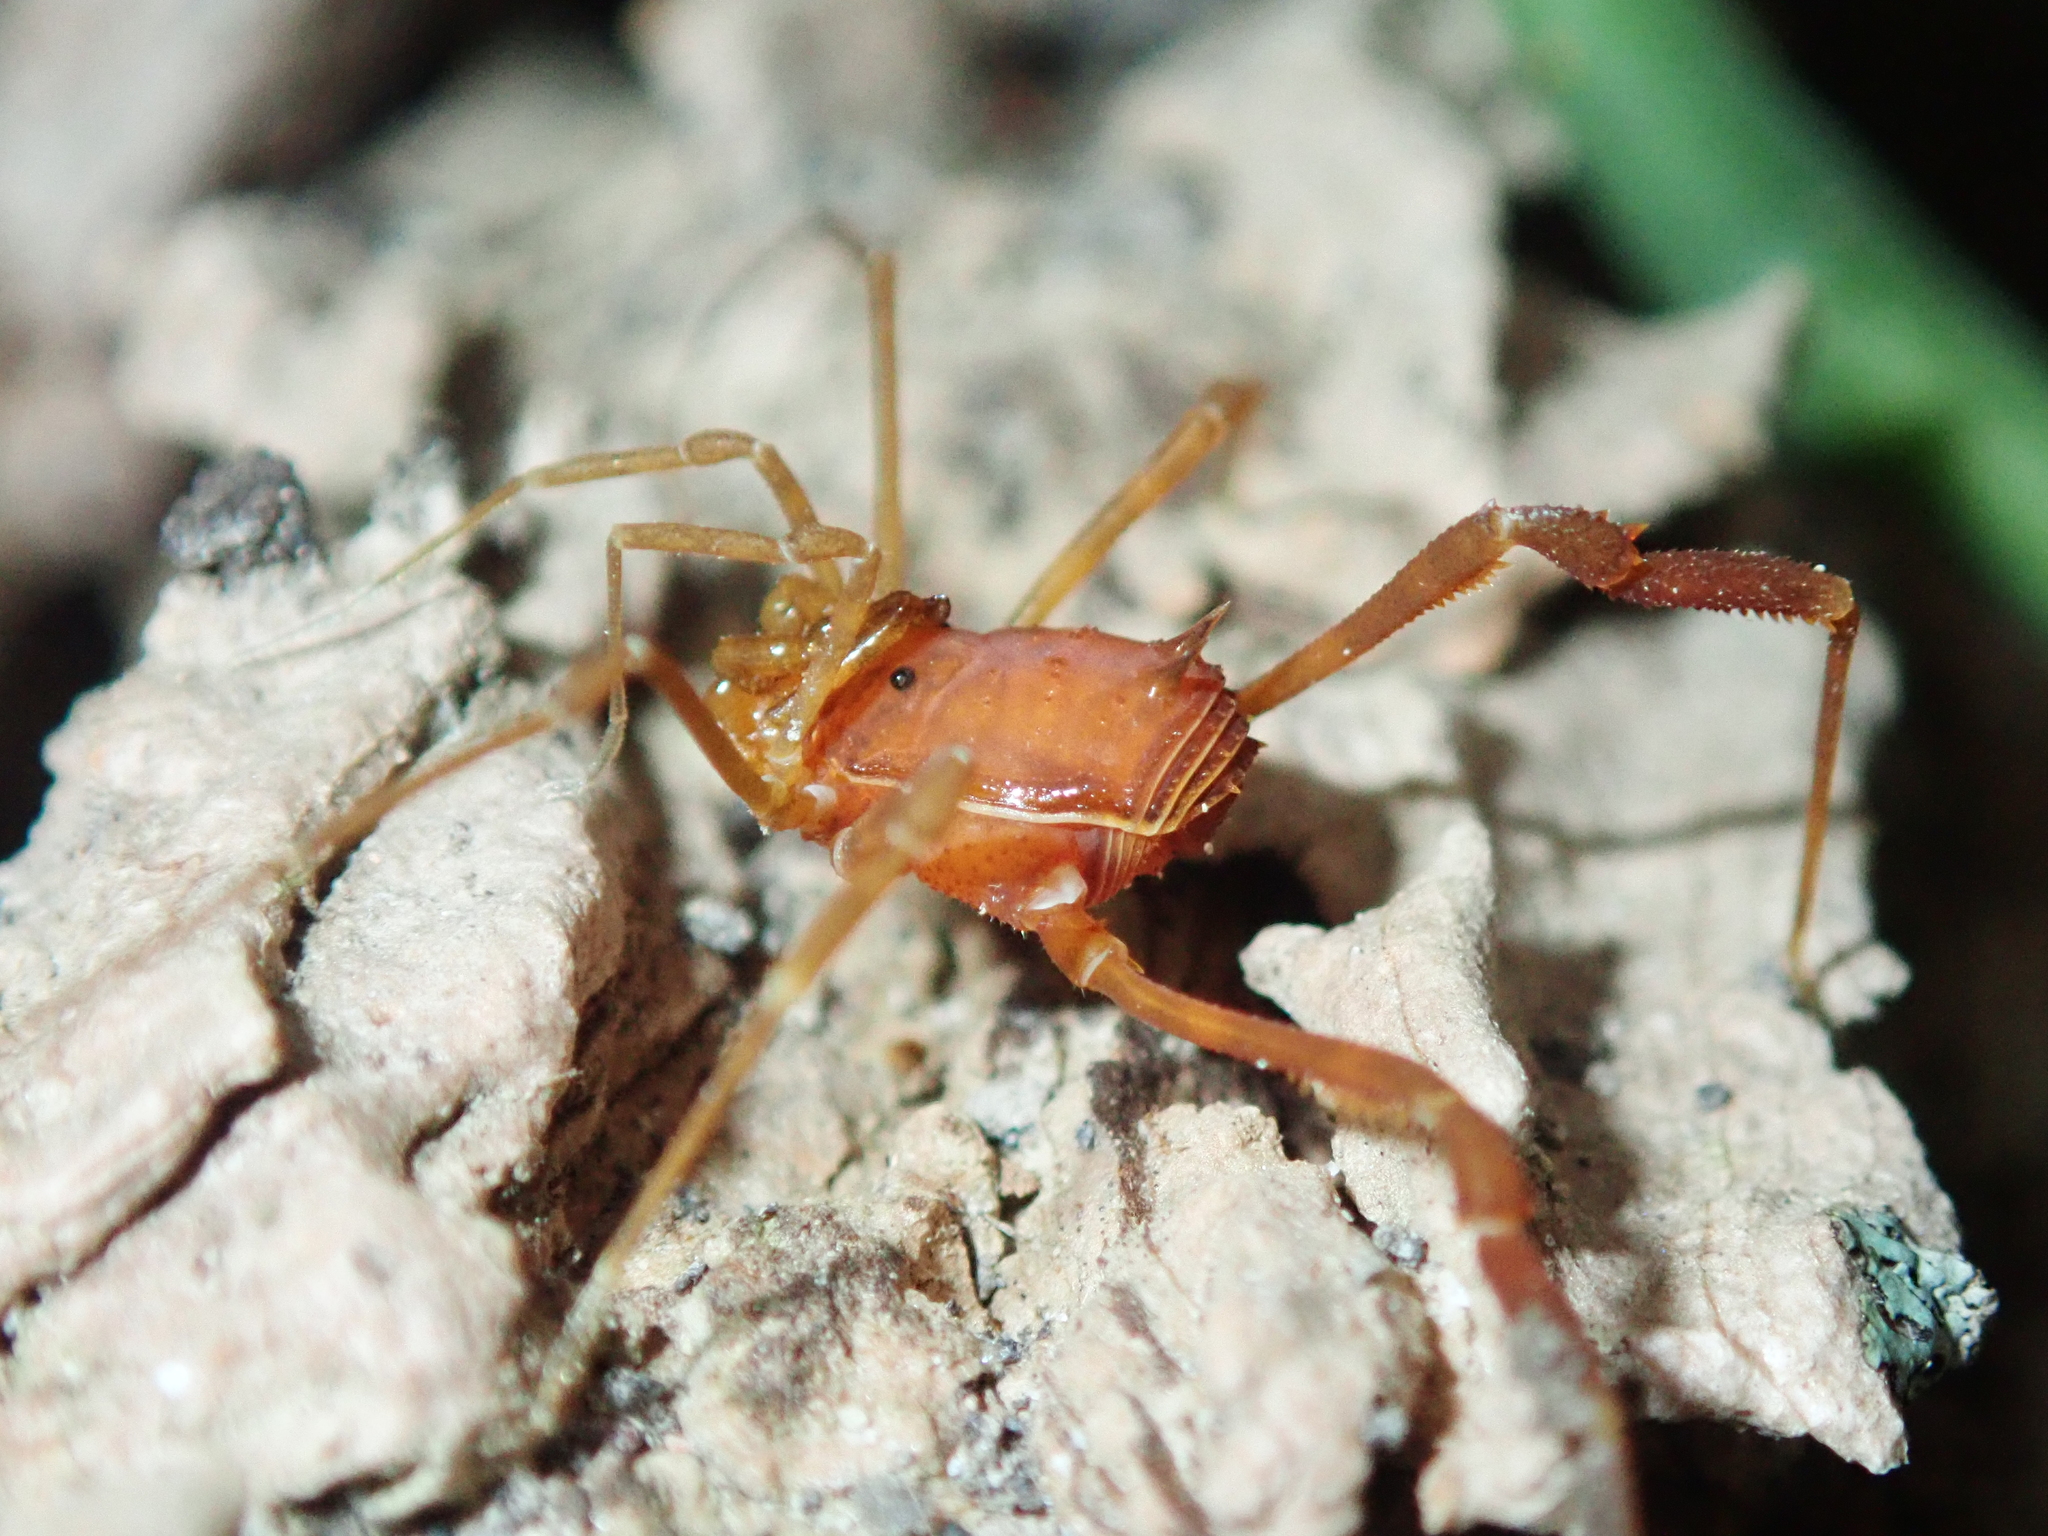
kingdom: Animalia
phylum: Arthropoda
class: Arachnida
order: Opiliones
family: Stygnidae
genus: Stygnus
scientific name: Stygnus polyacanthus
